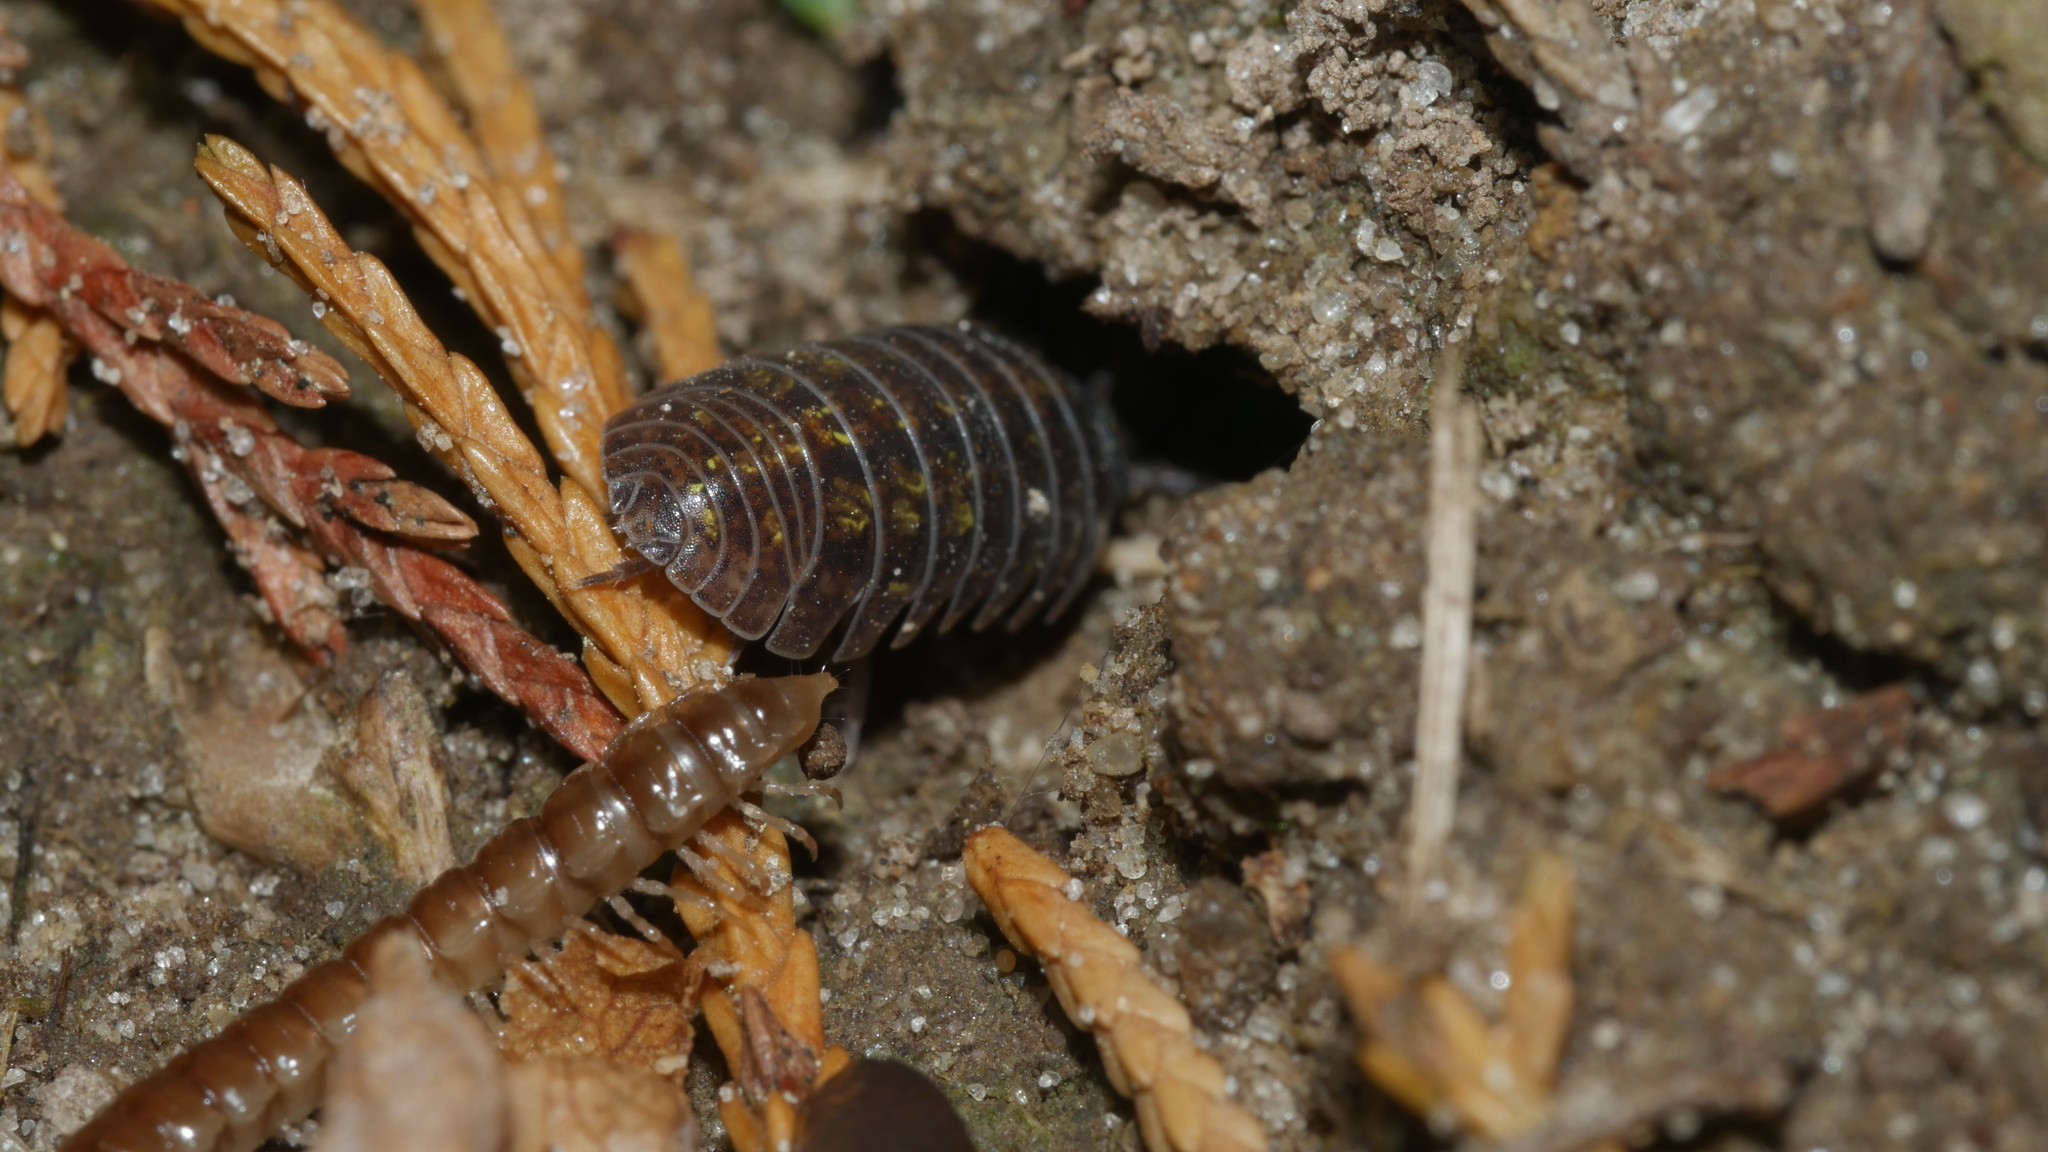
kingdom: Animalia
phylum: Arthropoda
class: Malacostraca
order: Isopoda
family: Armadillidiidae
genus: Armadillidium
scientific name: Armadillidium vulgare
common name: Common pill woodlouse
